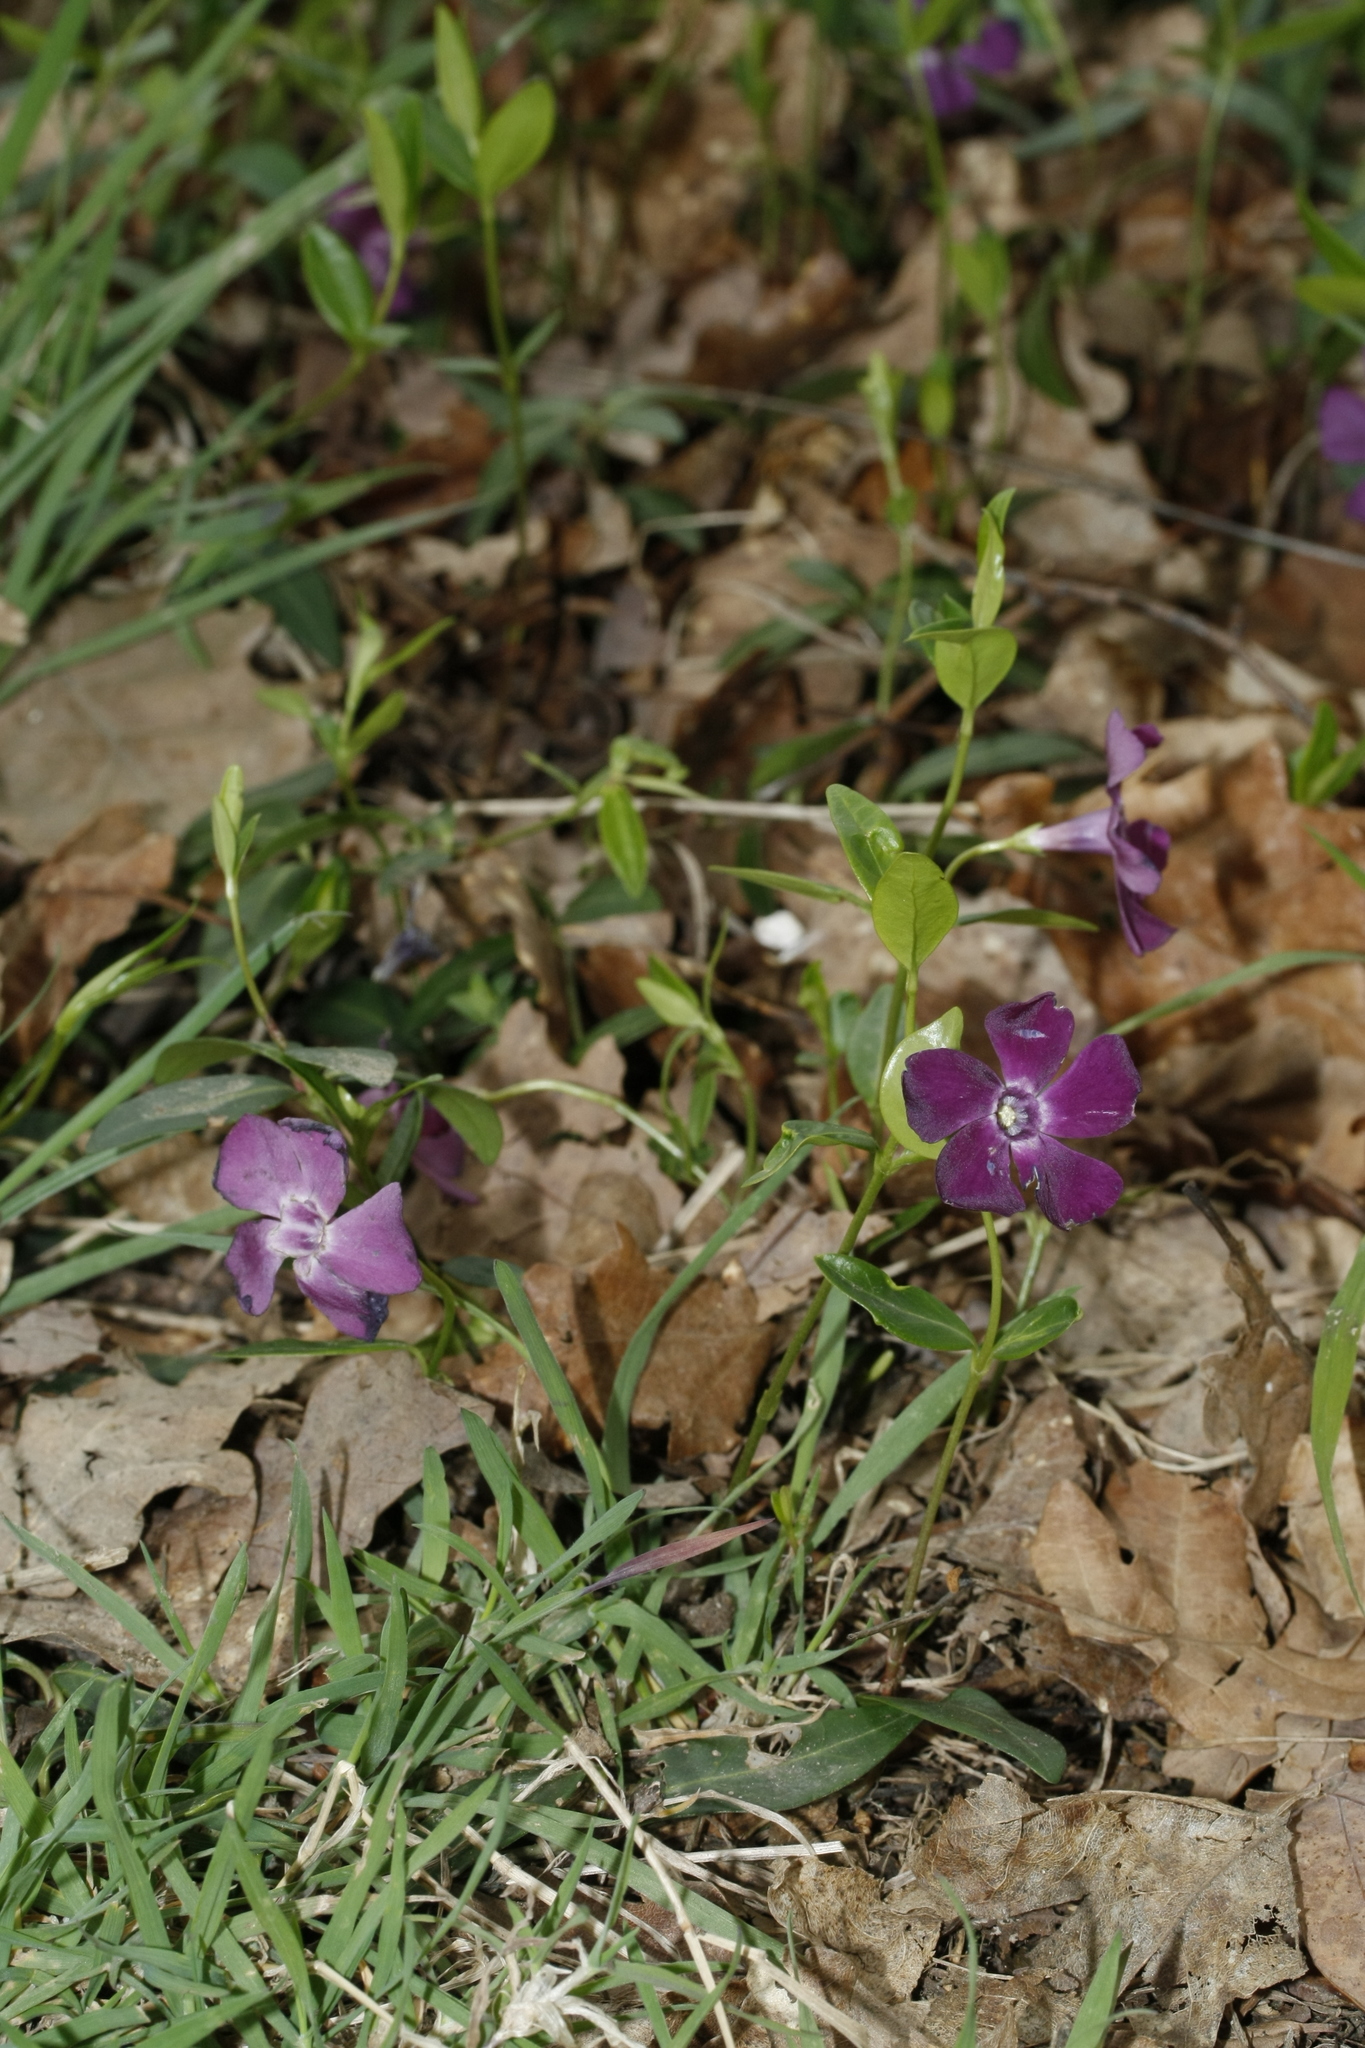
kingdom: Plantae
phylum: Tracheophyta
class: Magnoliopsida
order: Gentianales
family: Apocynaceae
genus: Vinca
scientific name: Vinca minor
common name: Lesser periwinkle
